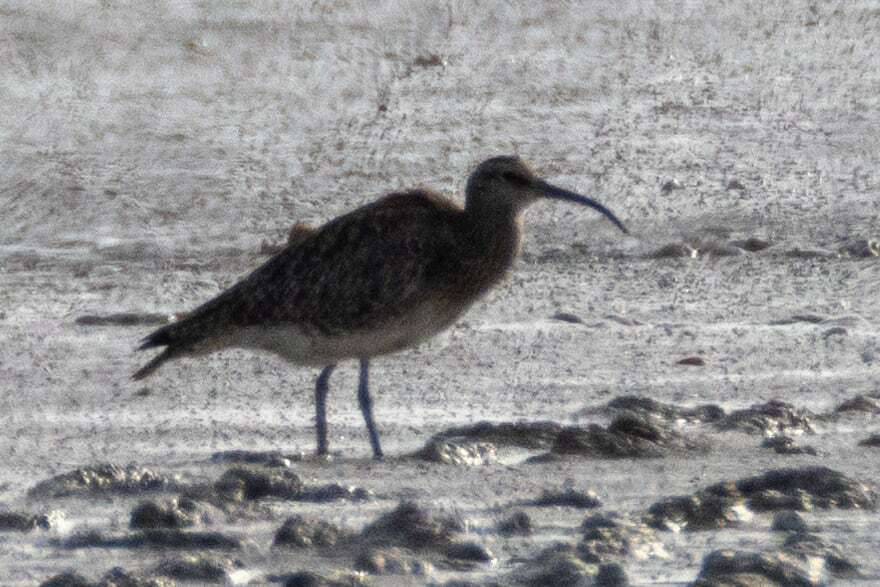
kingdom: Animalia
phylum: Chordata
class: Aves
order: Charadriiformes
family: Scolopacidae
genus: Numenius
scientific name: Numenius phaeopus
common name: Whimbrel
